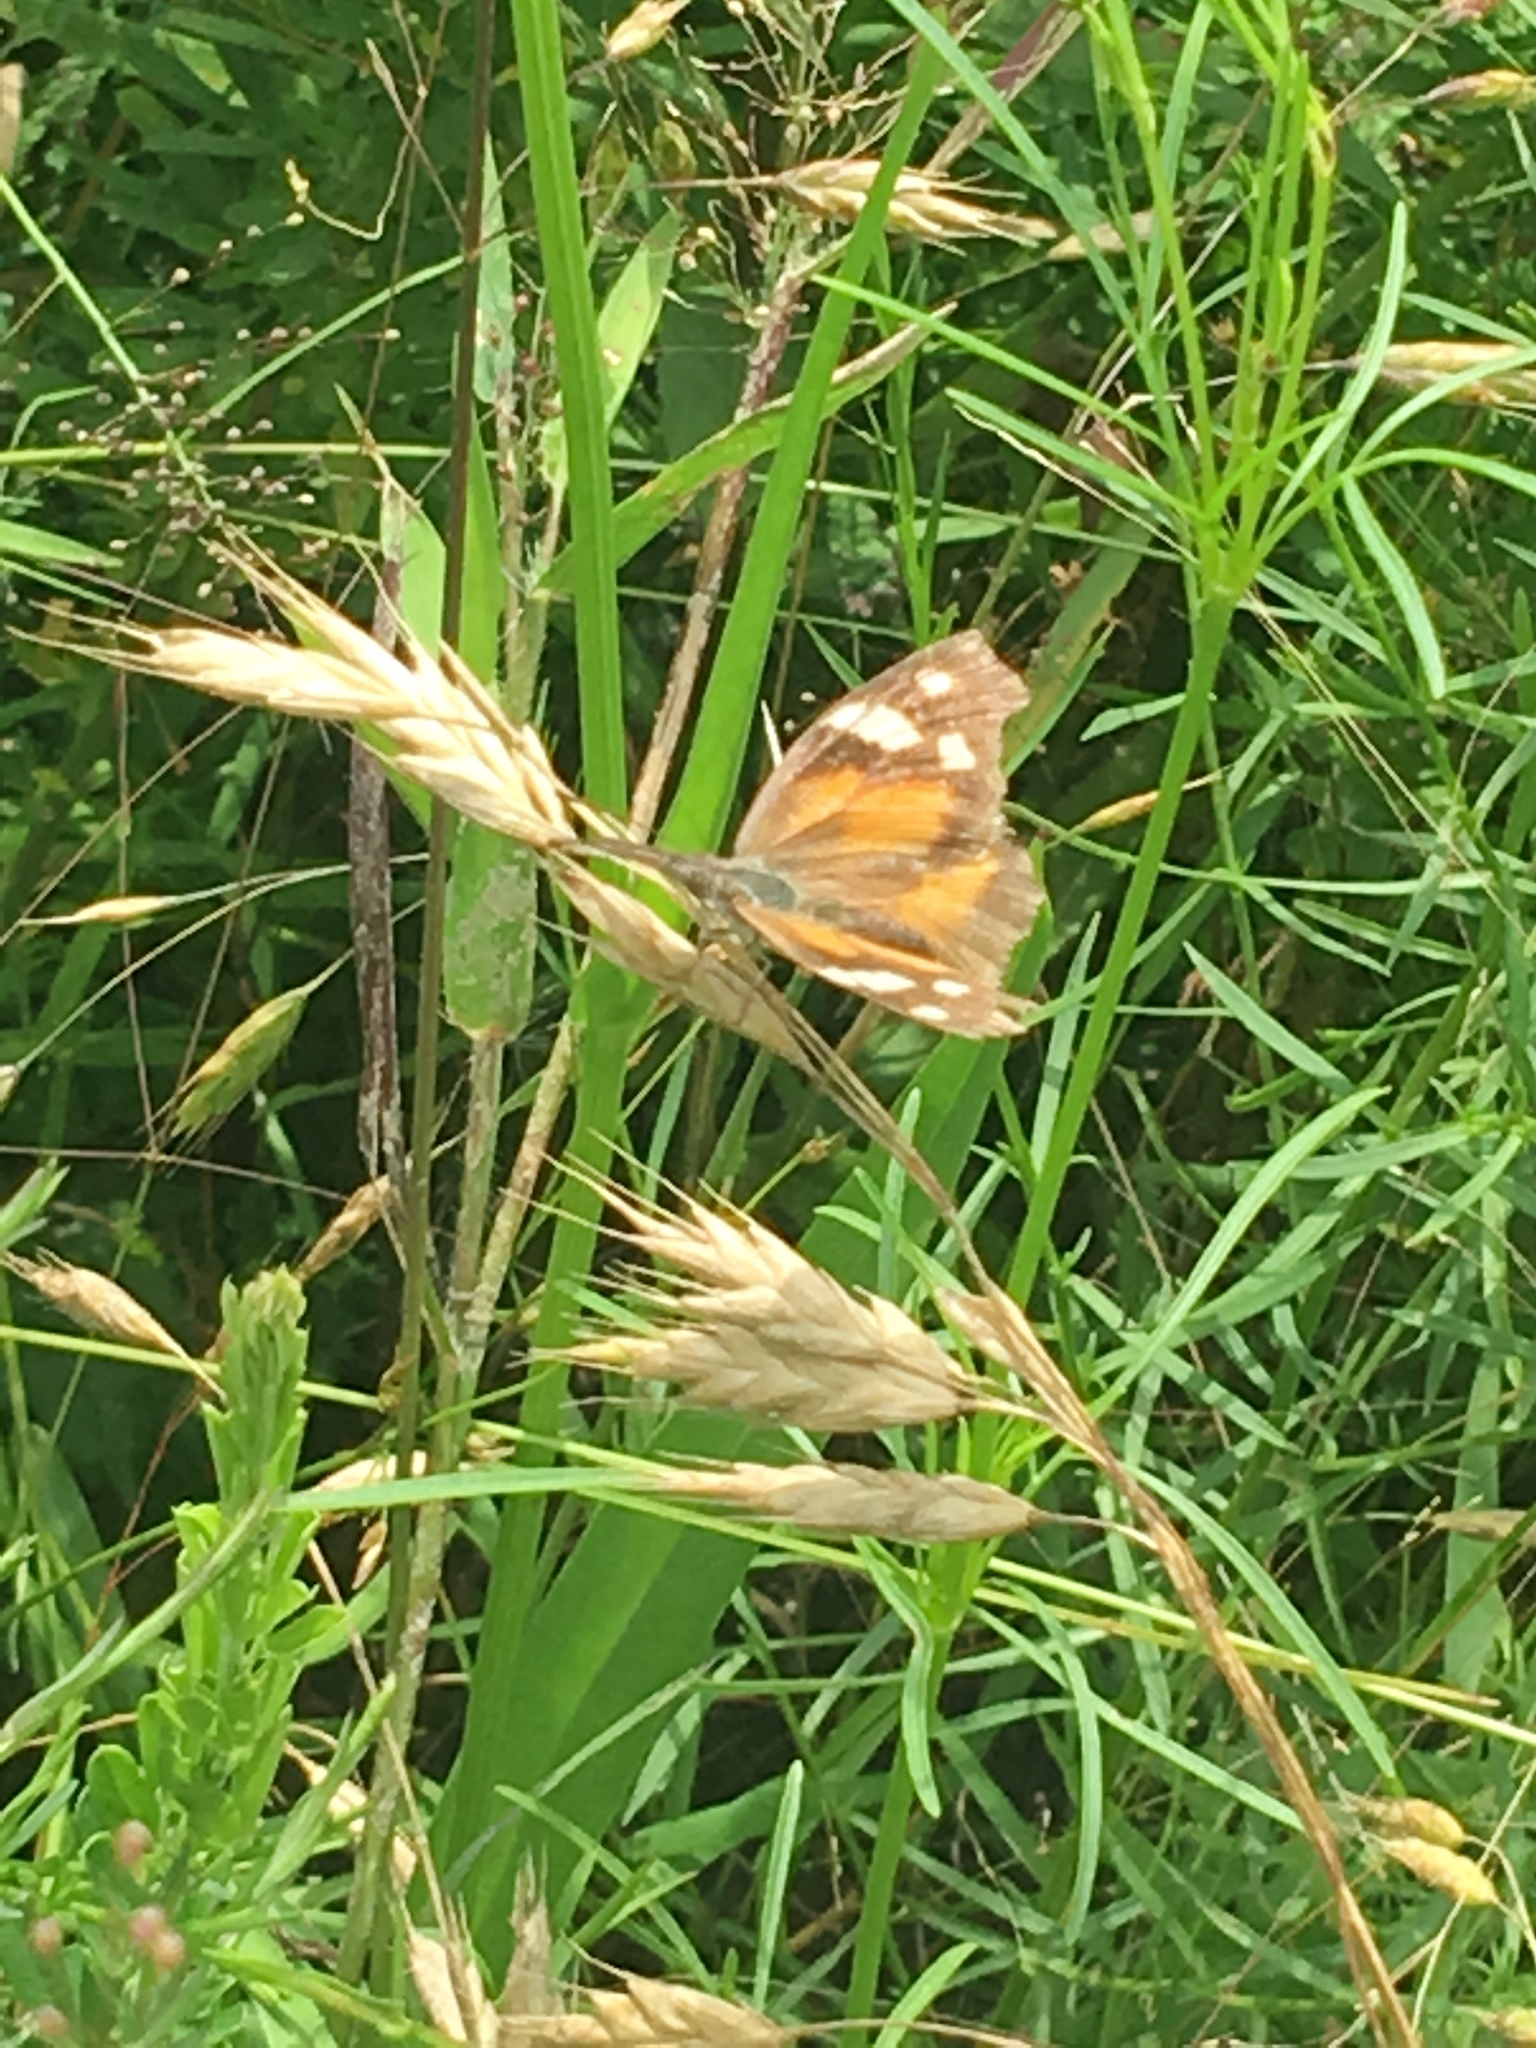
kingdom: Animalia
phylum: Arthropoda
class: Insecta
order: Lepidoptera
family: Nymphalidae
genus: Libytheana
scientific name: Libytheana carinenta
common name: American snout
